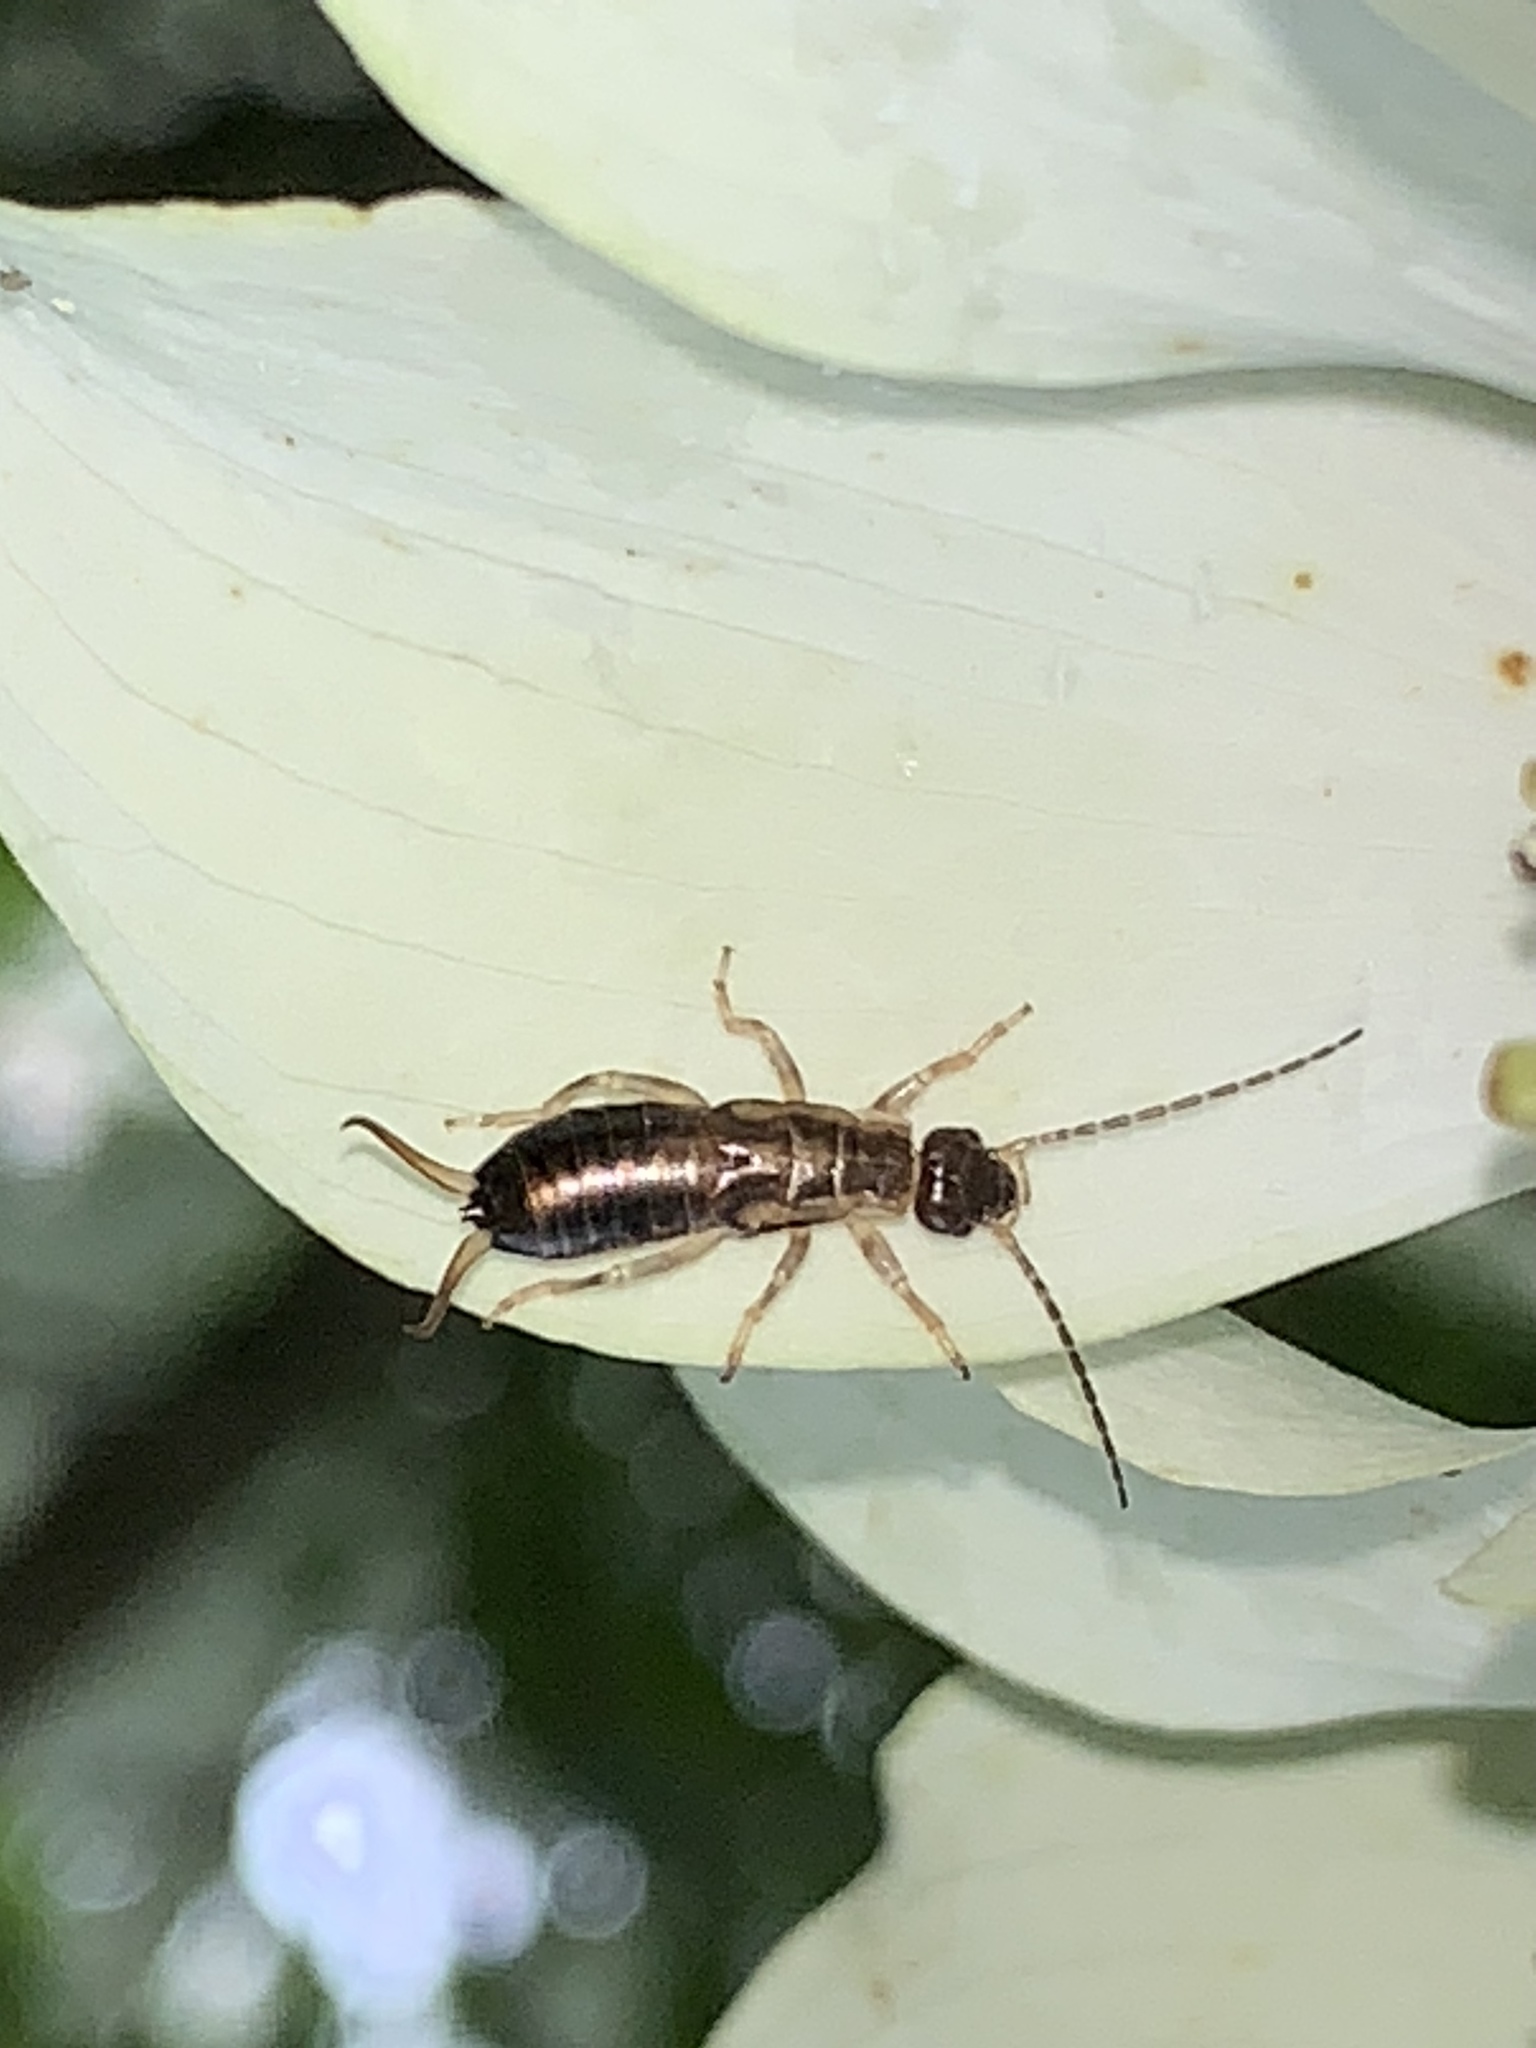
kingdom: Animalia
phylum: Arthropoda
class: Insecta
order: Dermaptera
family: Forficulidae
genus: Forficula
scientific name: Forficula
